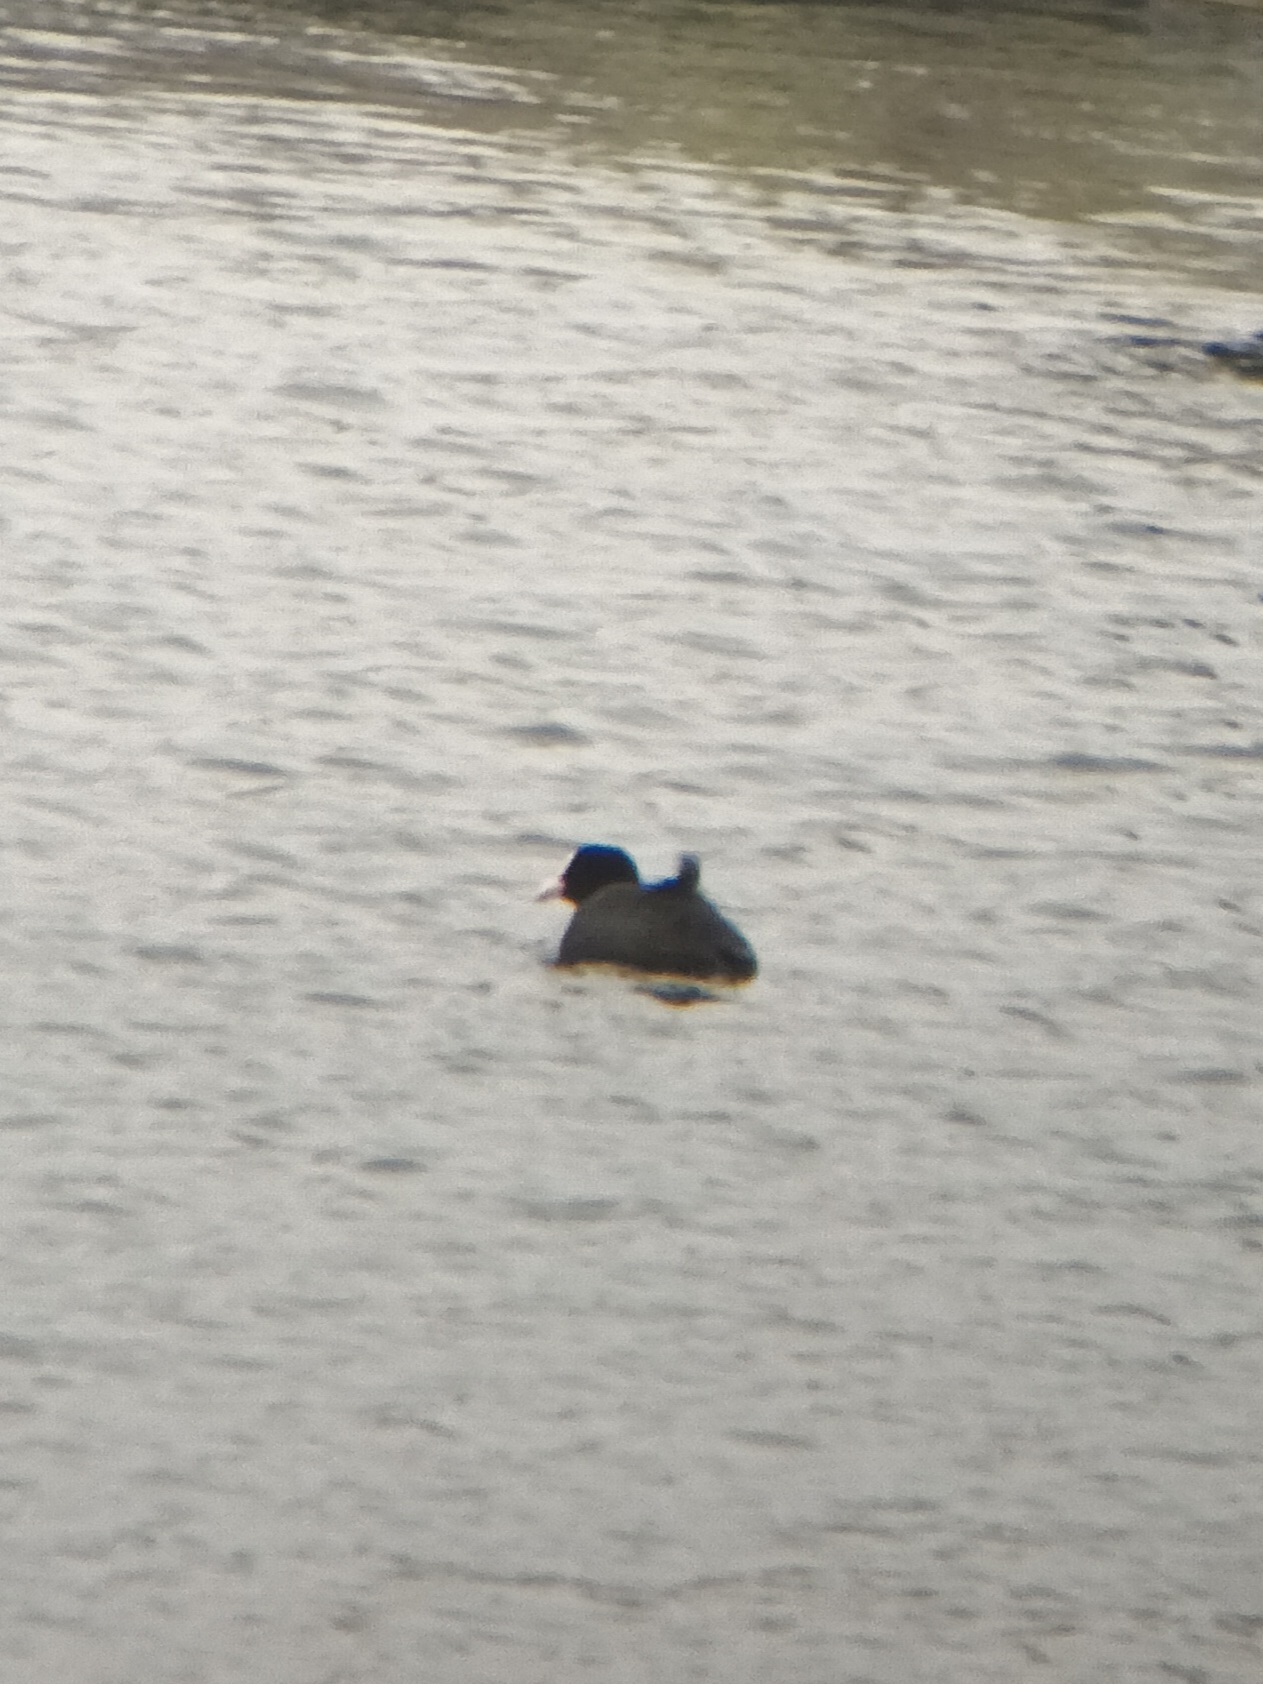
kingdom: Animalia
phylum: Chordata
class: Aves
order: Gruiformes
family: Rallidae
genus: Fulica
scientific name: Fulica atra
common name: Eurasian coot
